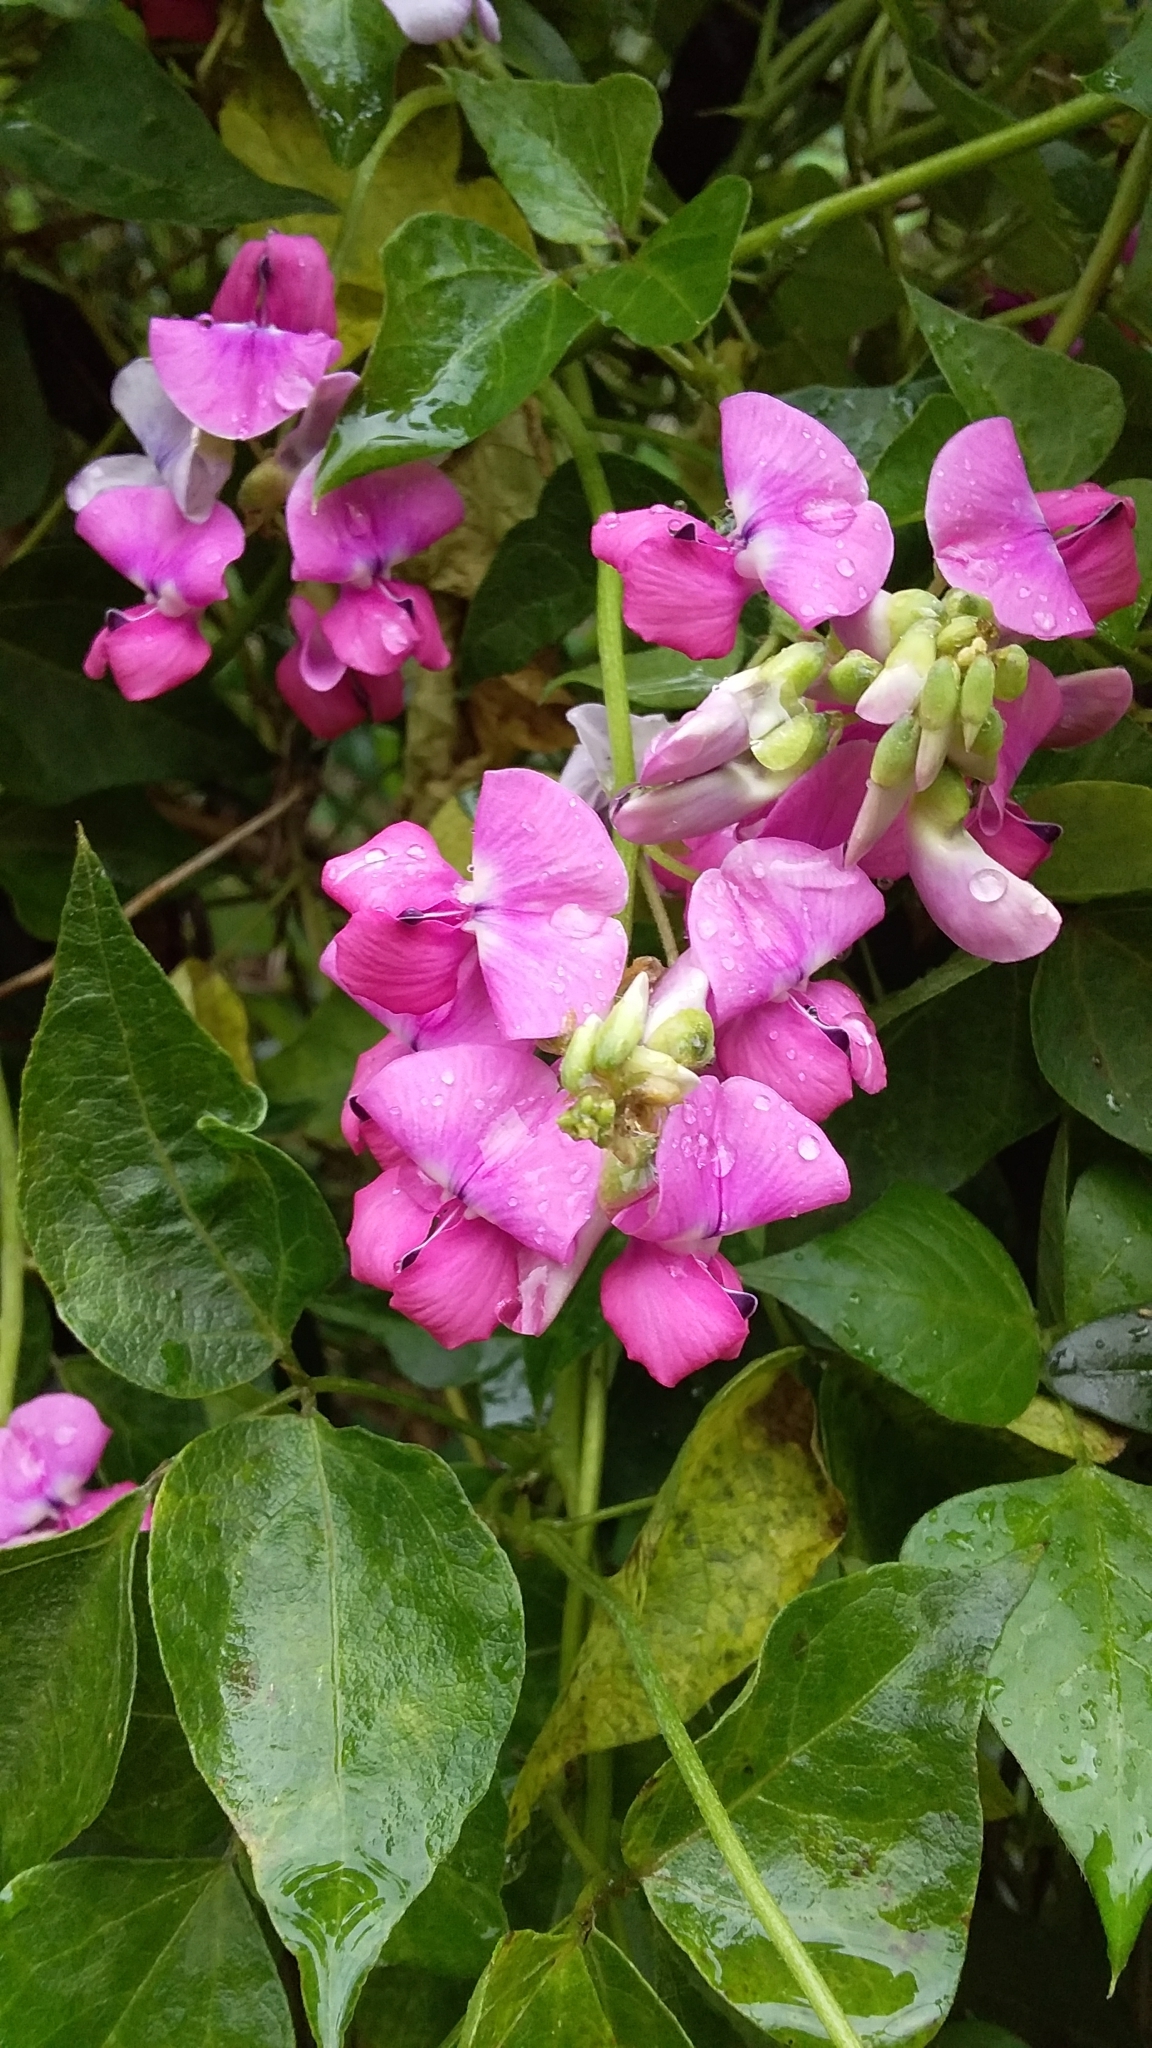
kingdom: Plantae
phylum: Tracheophyta
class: Magnoliopsida
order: Fabales
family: Fabaceae
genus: Dipogon
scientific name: Dipogon lignosus
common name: Okie bean
